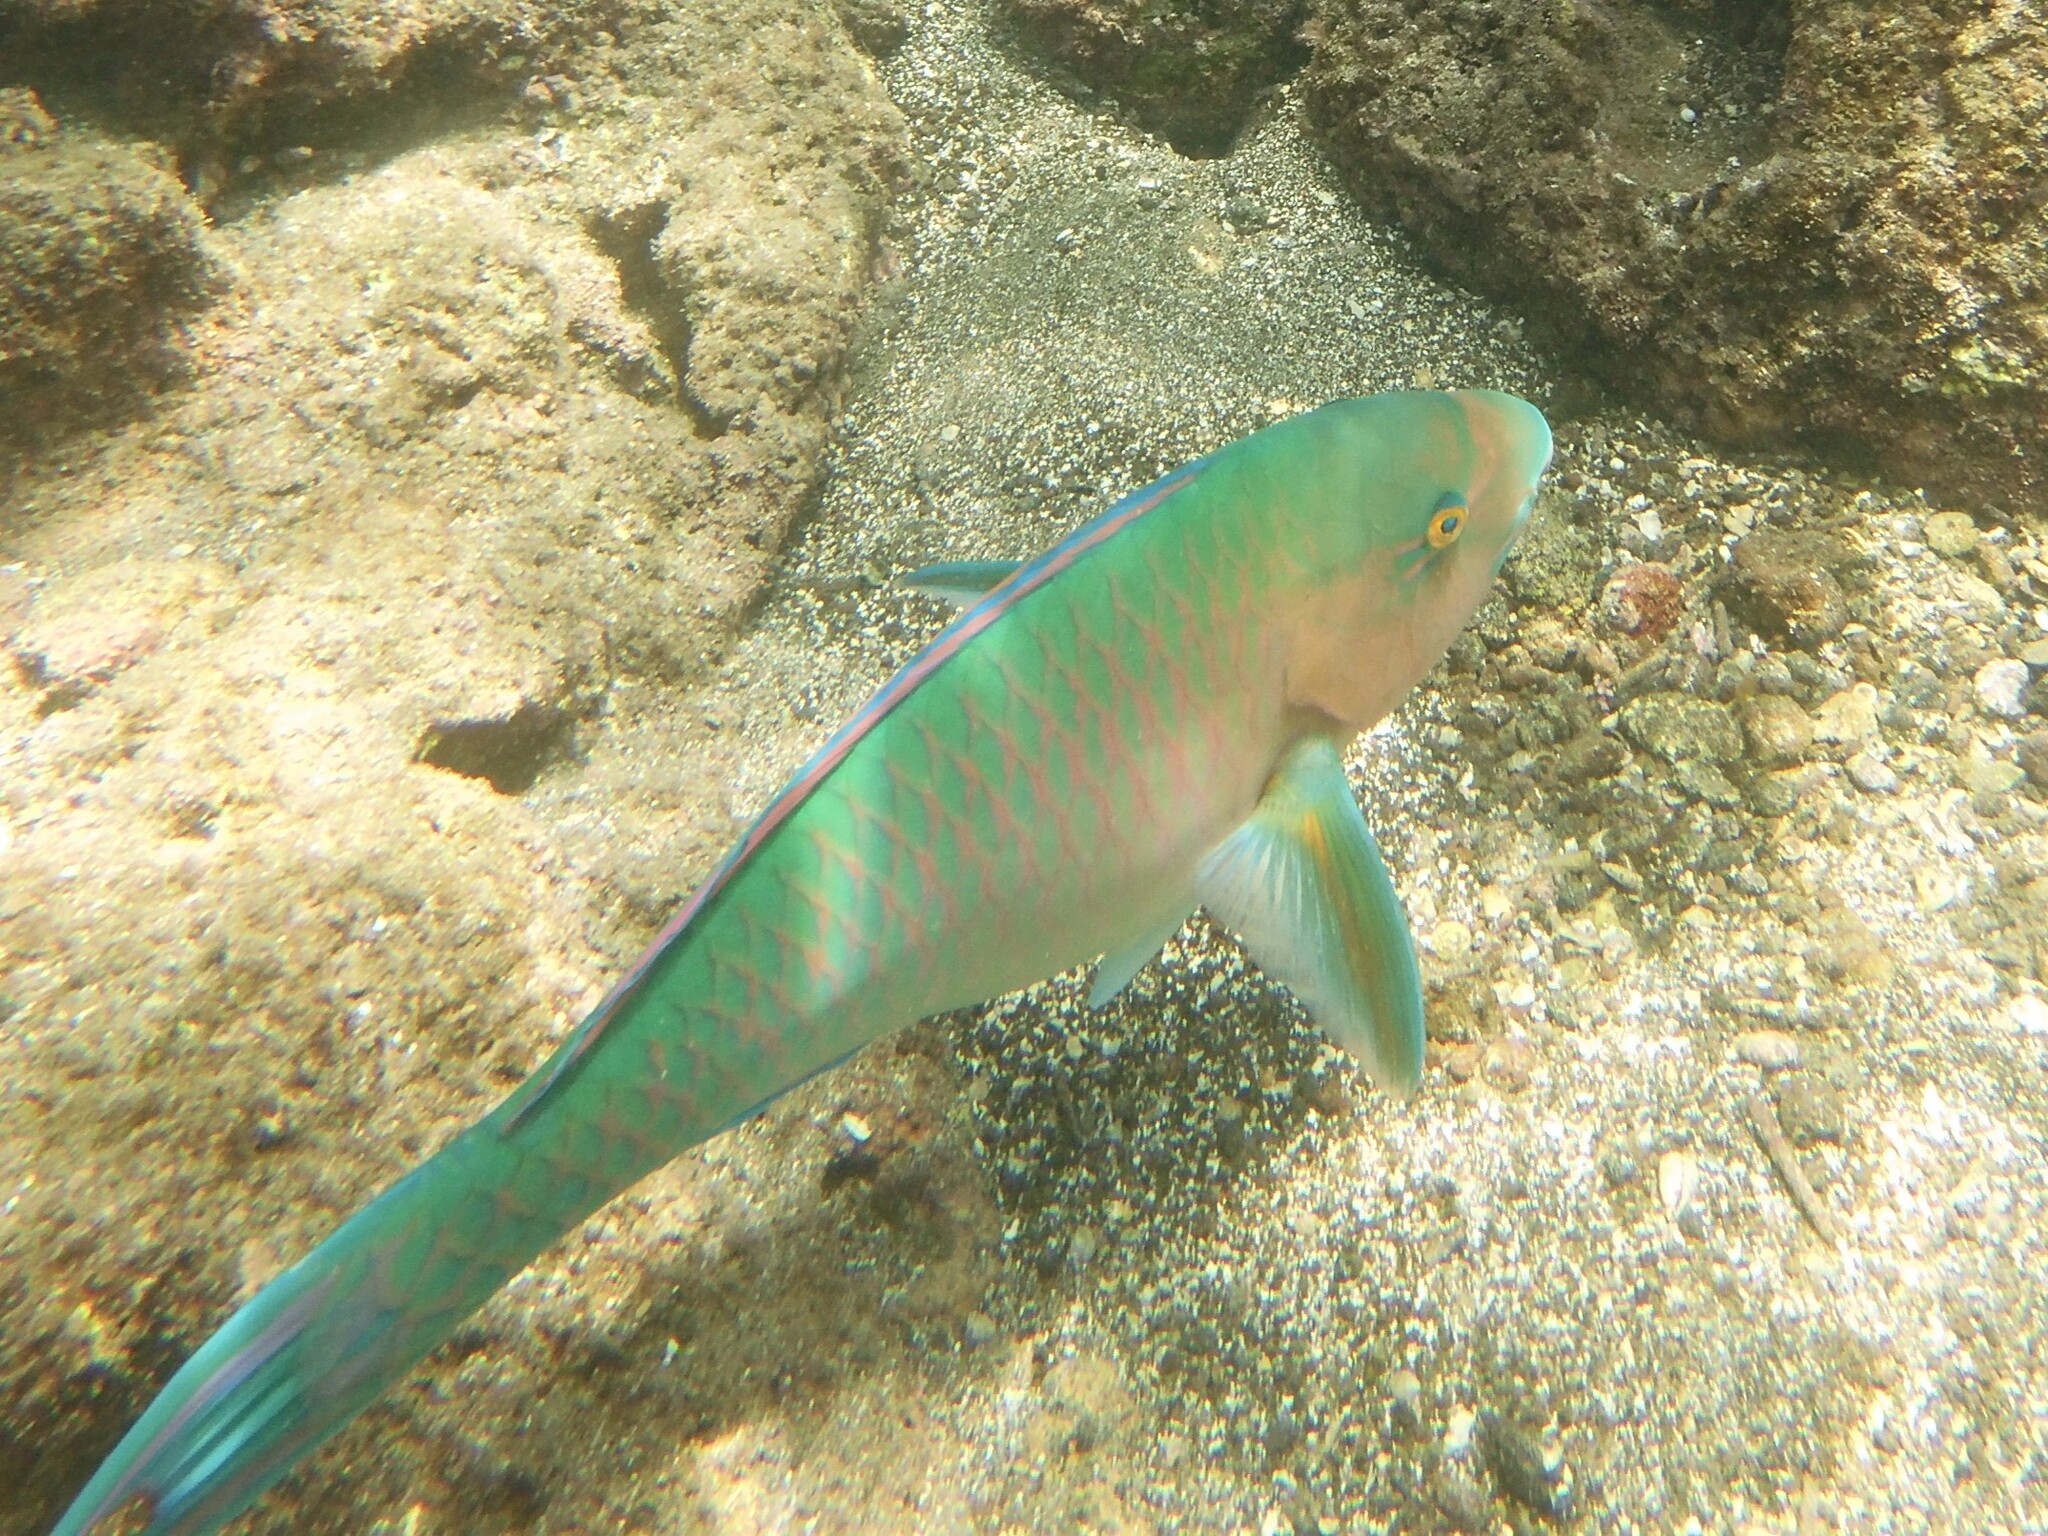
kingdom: Animalia
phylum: Chordata
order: Perciformes
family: Scaridae
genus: Scarus
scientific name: Scarus ghobban
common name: Blue-barred parrotfish
